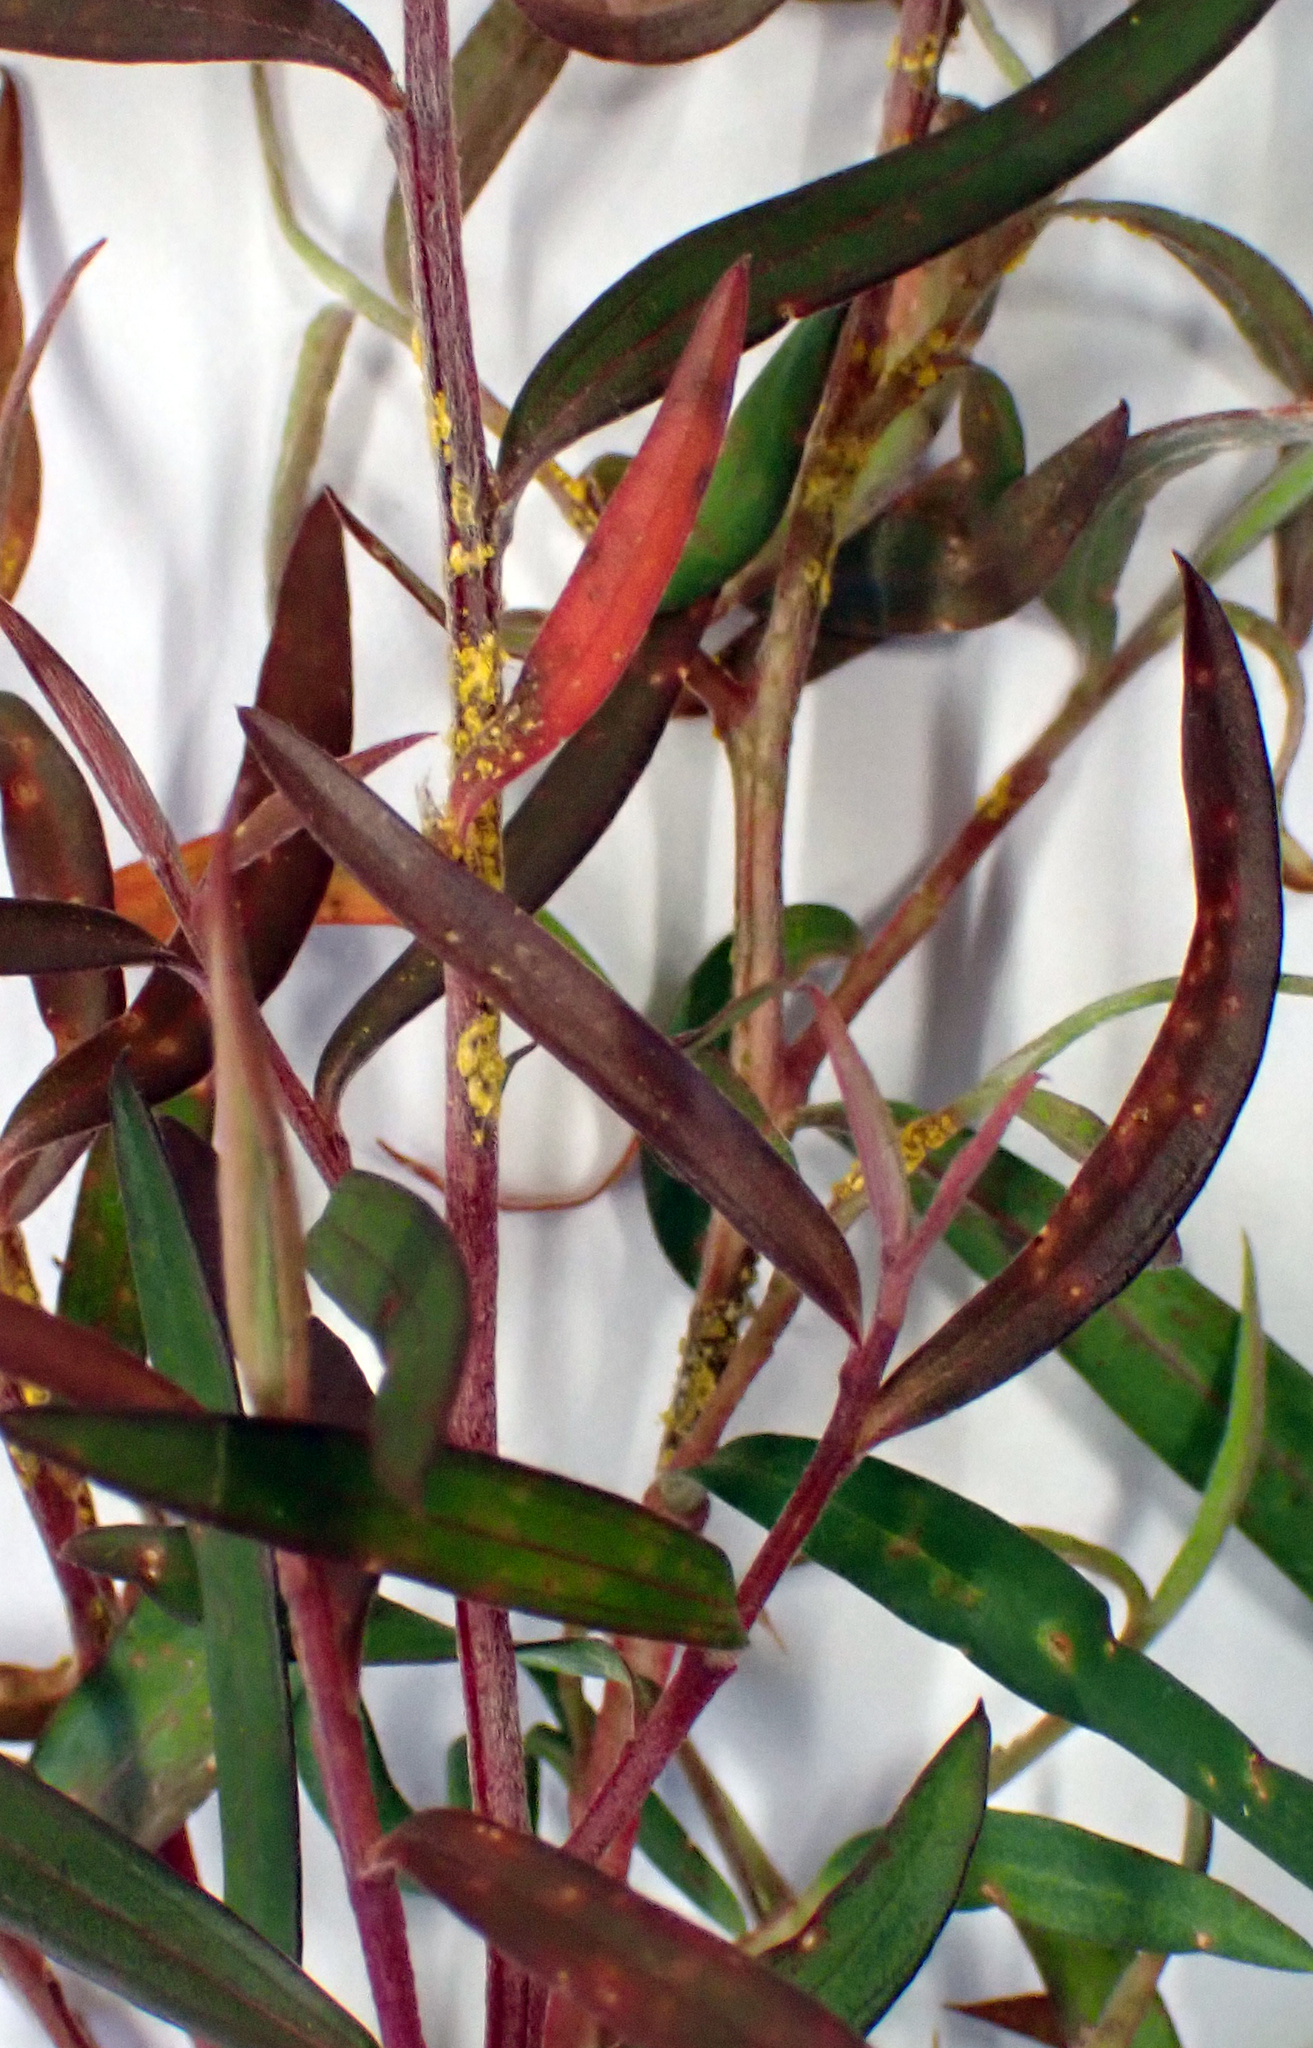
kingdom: Fungi
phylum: Basidiomycota
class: Pucciniomycetes
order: Pucciniales
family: Sphaerophragmiaceae
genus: Austropuccinia
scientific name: Austropuccinia psidii
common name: Myrtle rust
